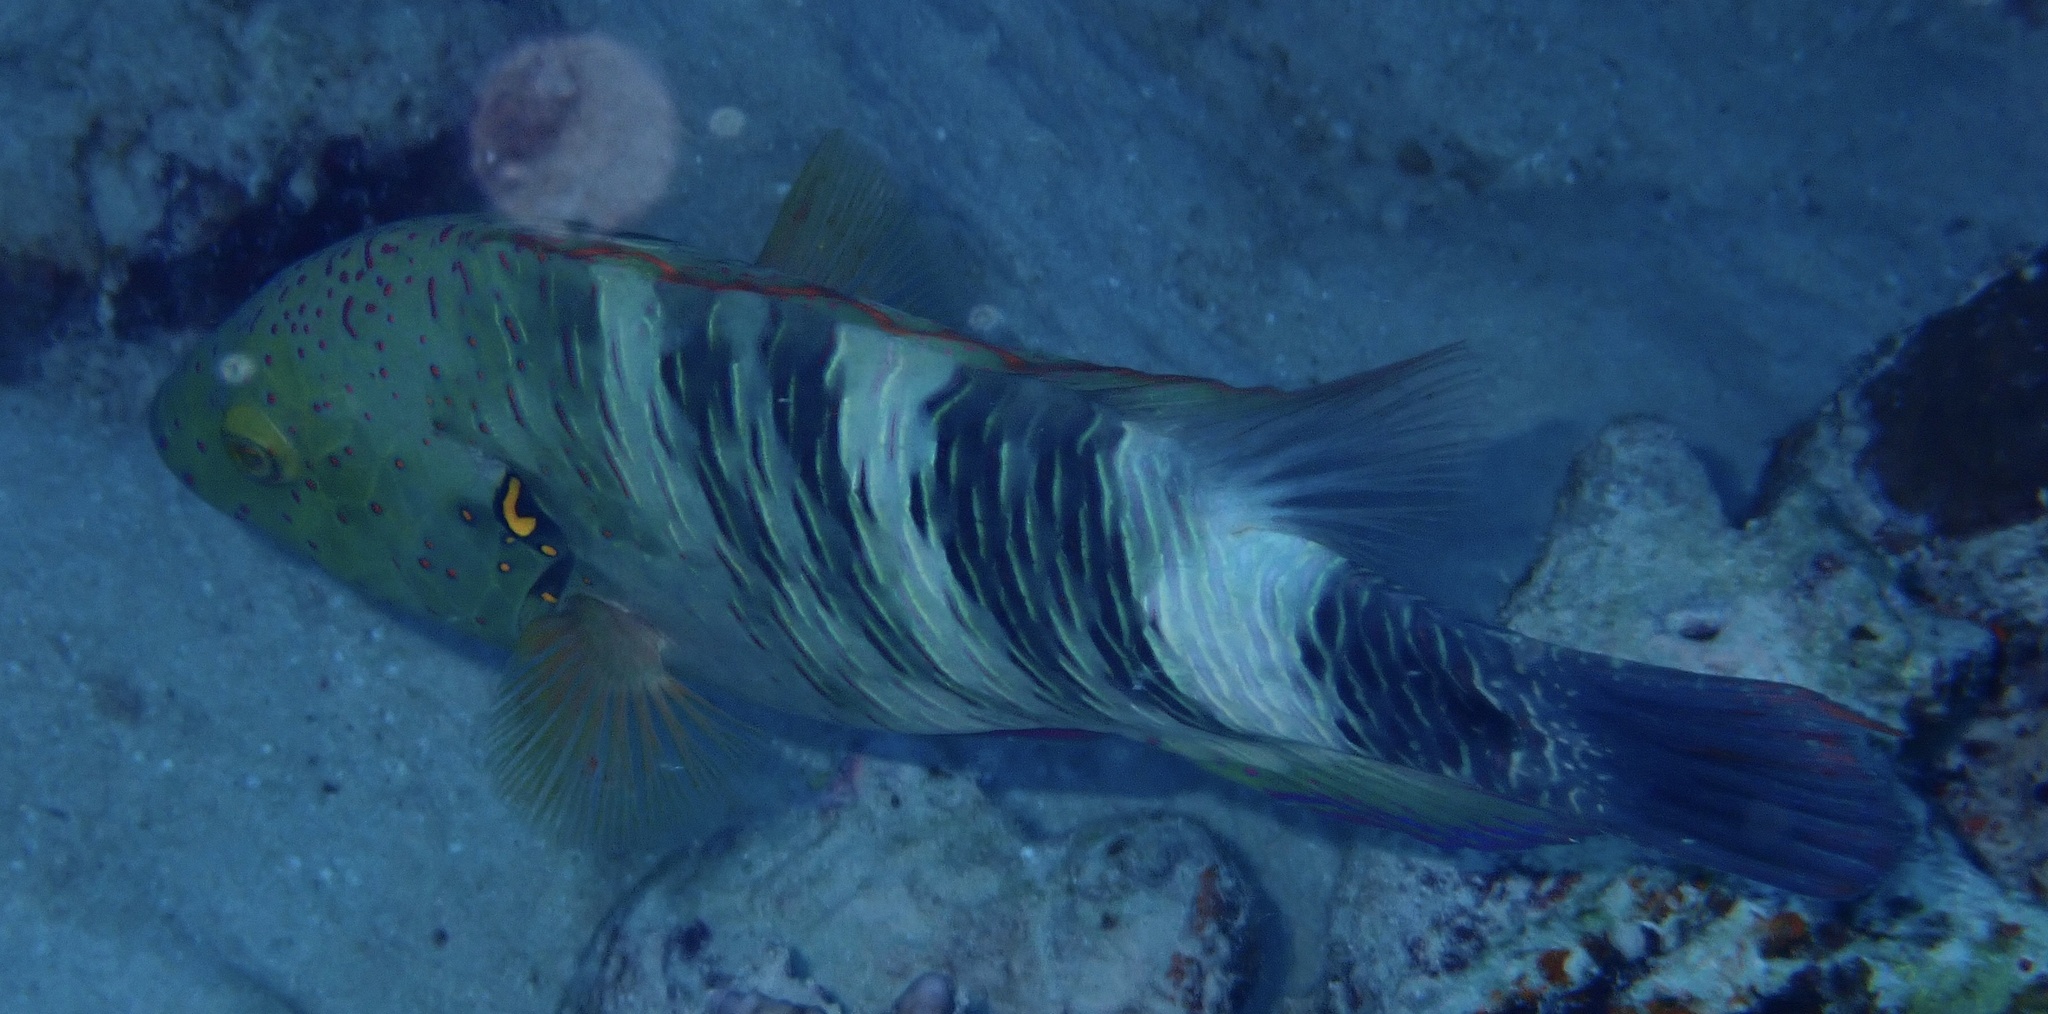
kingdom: Animalia
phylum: Chordata
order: Perciformes
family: Labridae
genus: Cheilinus
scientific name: Cheilinus lunulatus
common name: Broomtail wrasse
